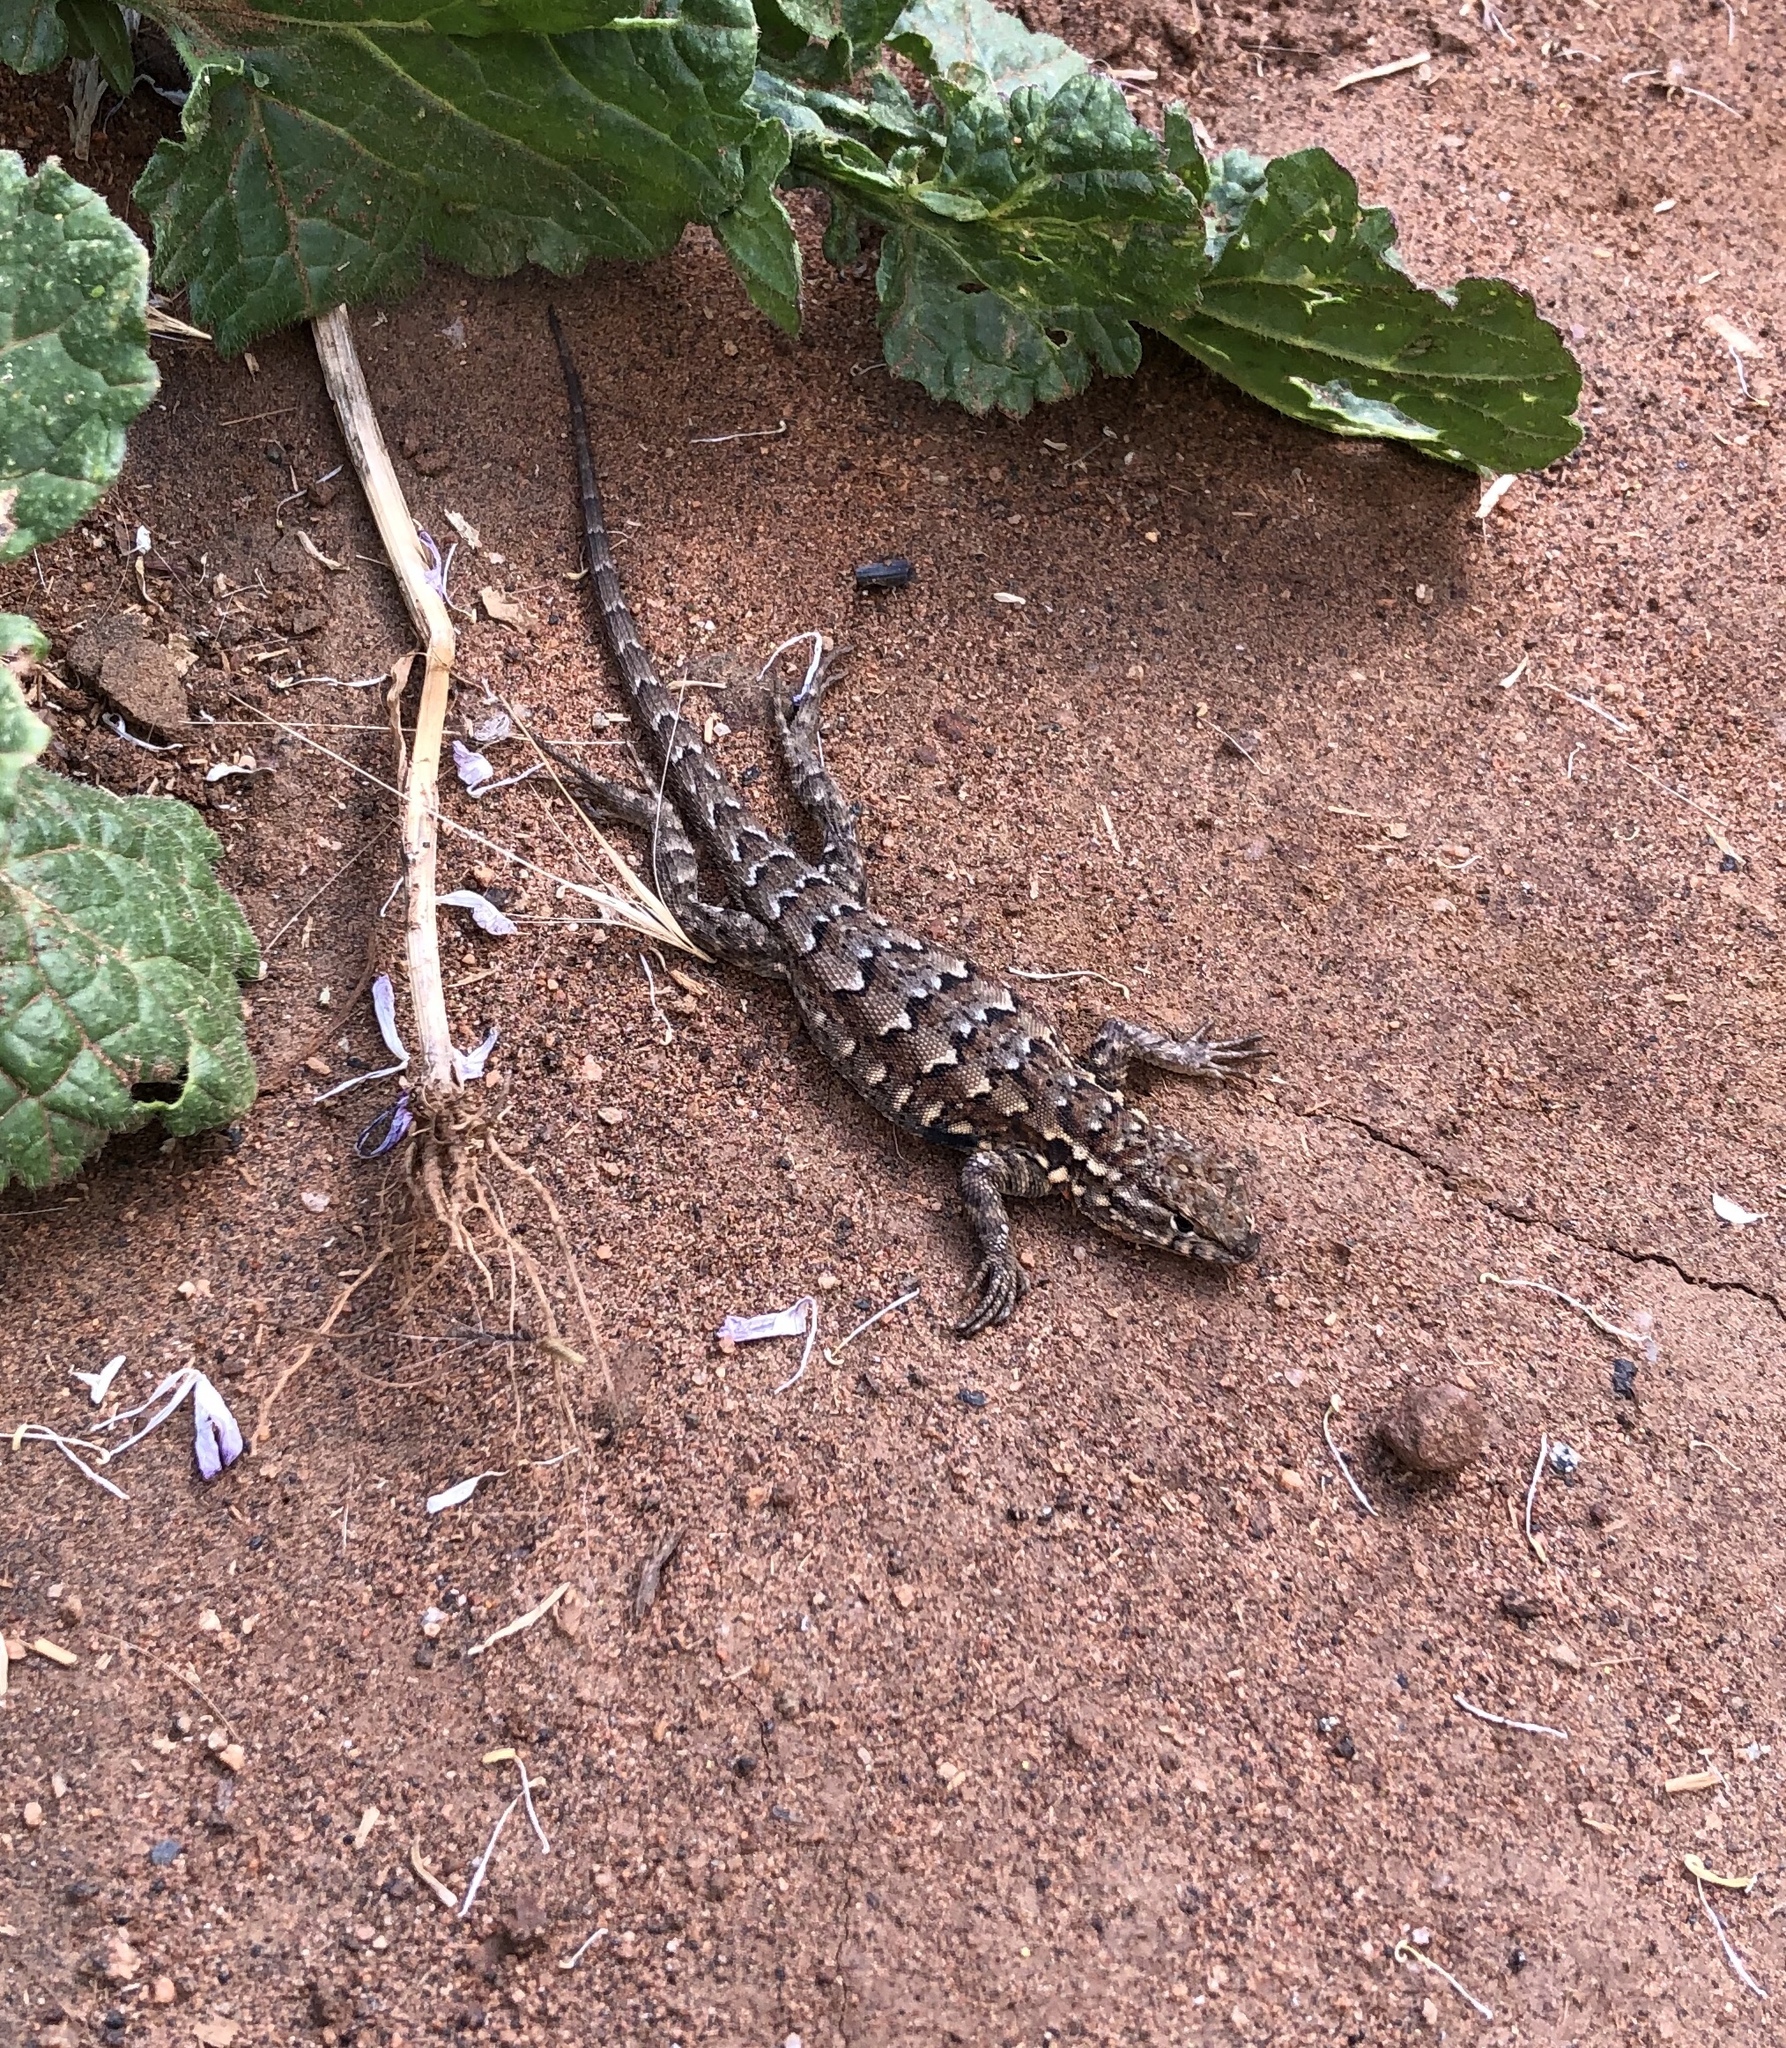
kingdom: Animalia
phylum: Chordata
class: Squamata
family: Phrynosomatidae
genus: Uta
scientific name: Uta stansburiana
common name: Side-blotched lizard
